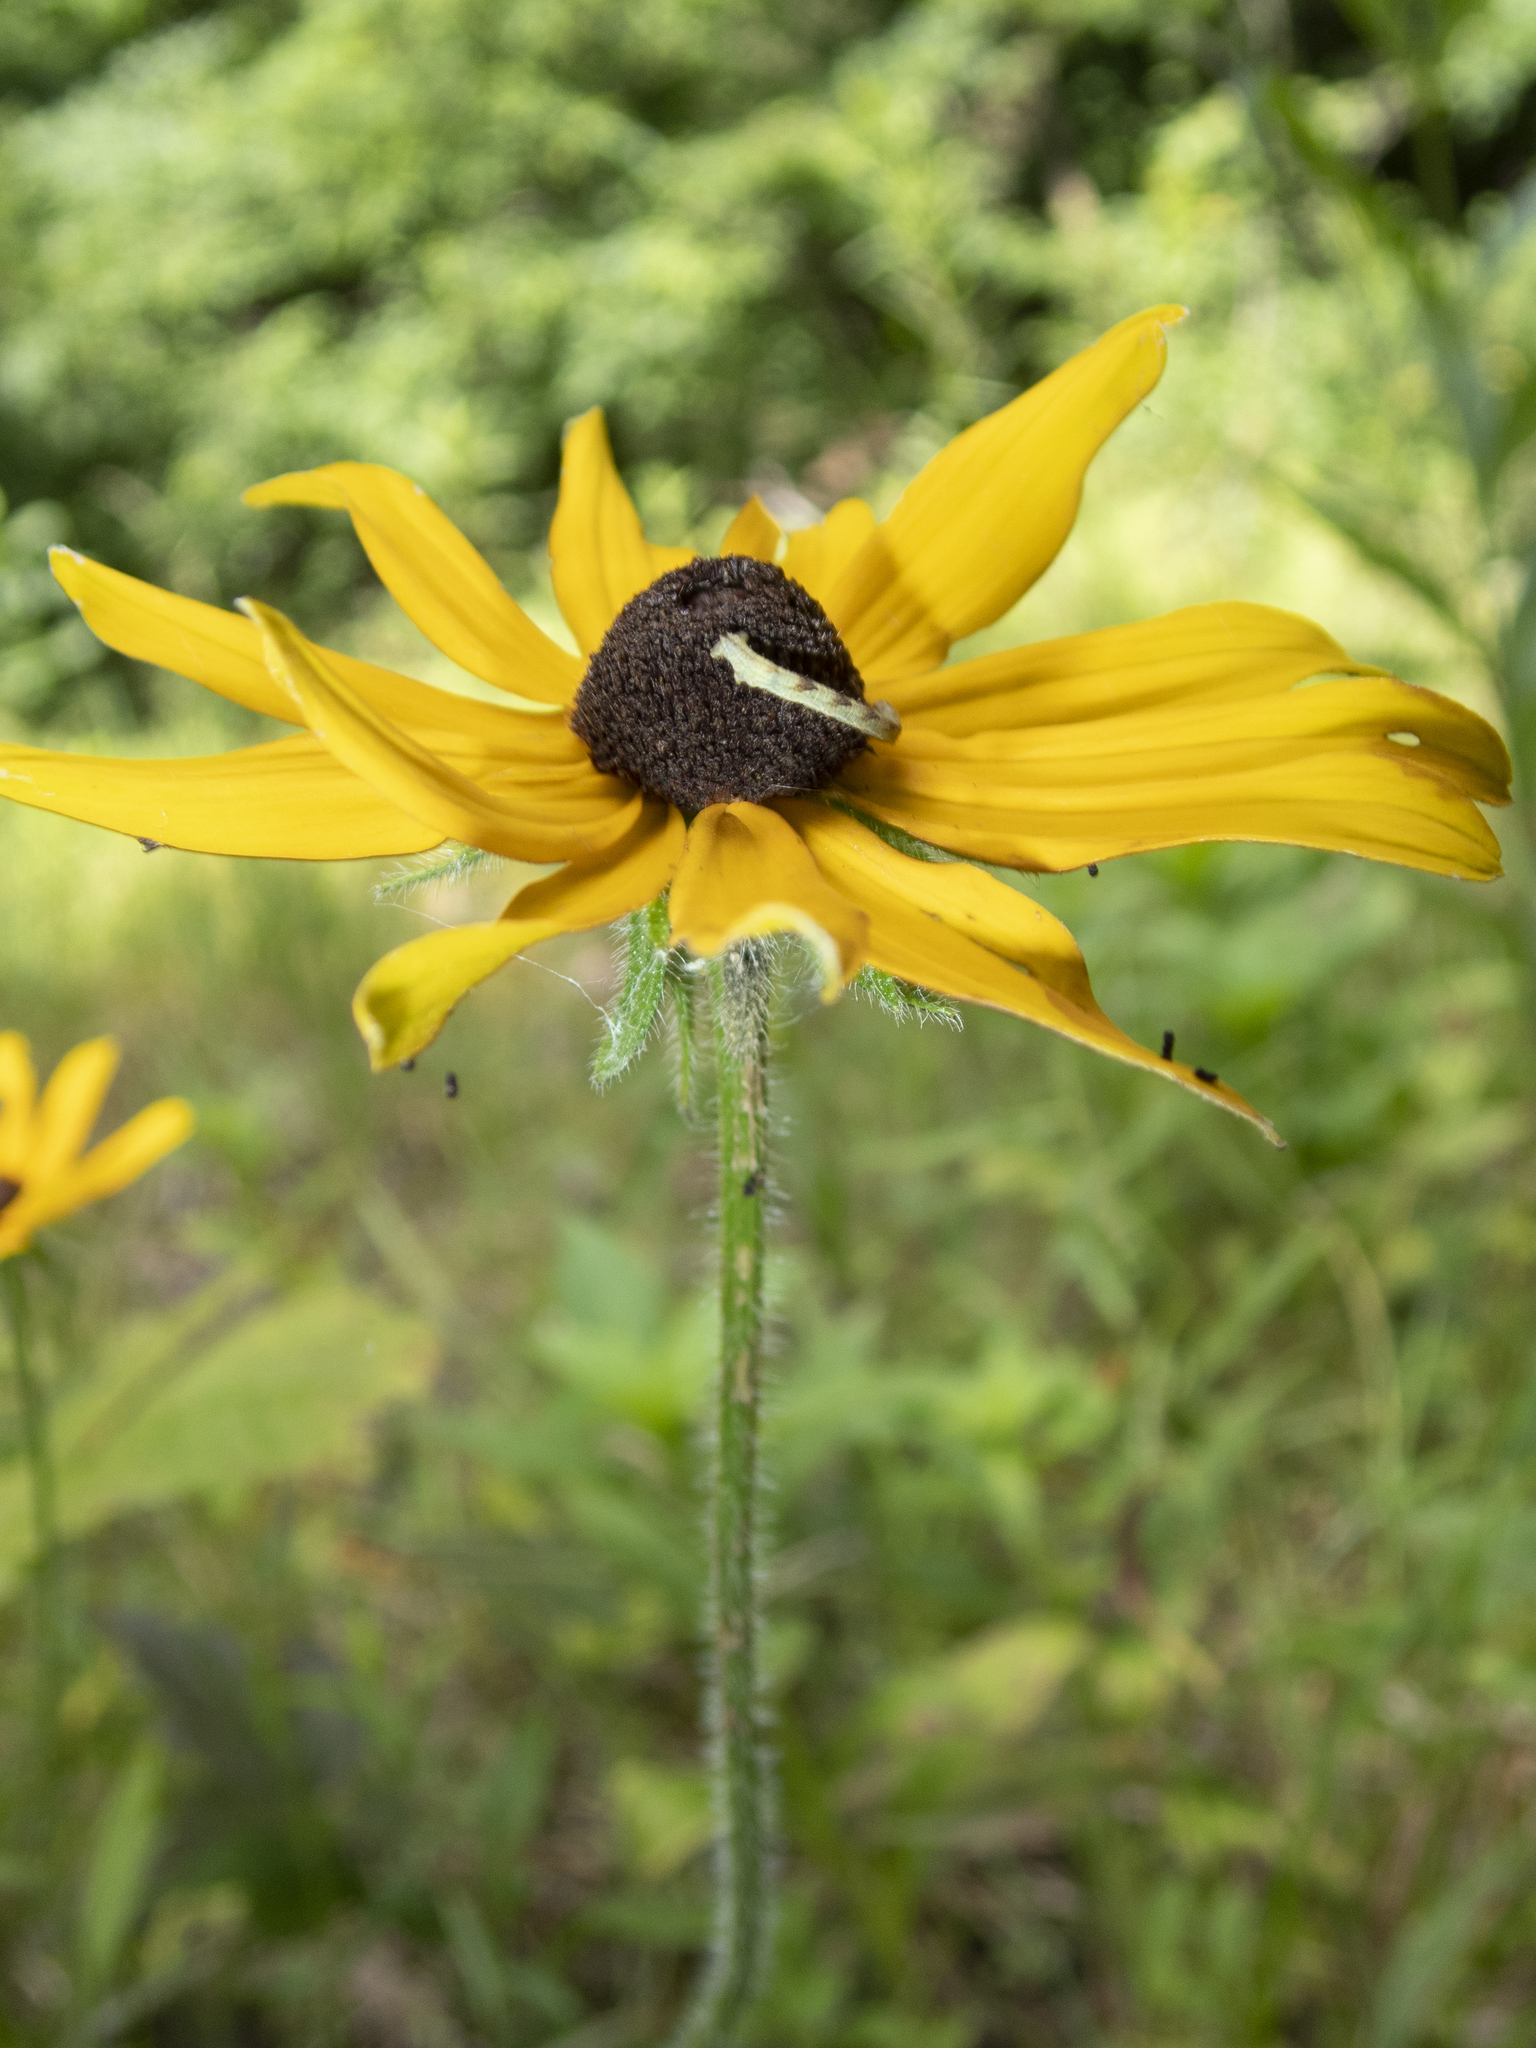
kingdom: Plantae
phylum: Tracheophyta
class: Magnoliopsida
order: Asterales
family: Asteraceae
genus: Rudbeckia
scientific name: Rudbeckia hirta
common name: Black-eyed-susan
